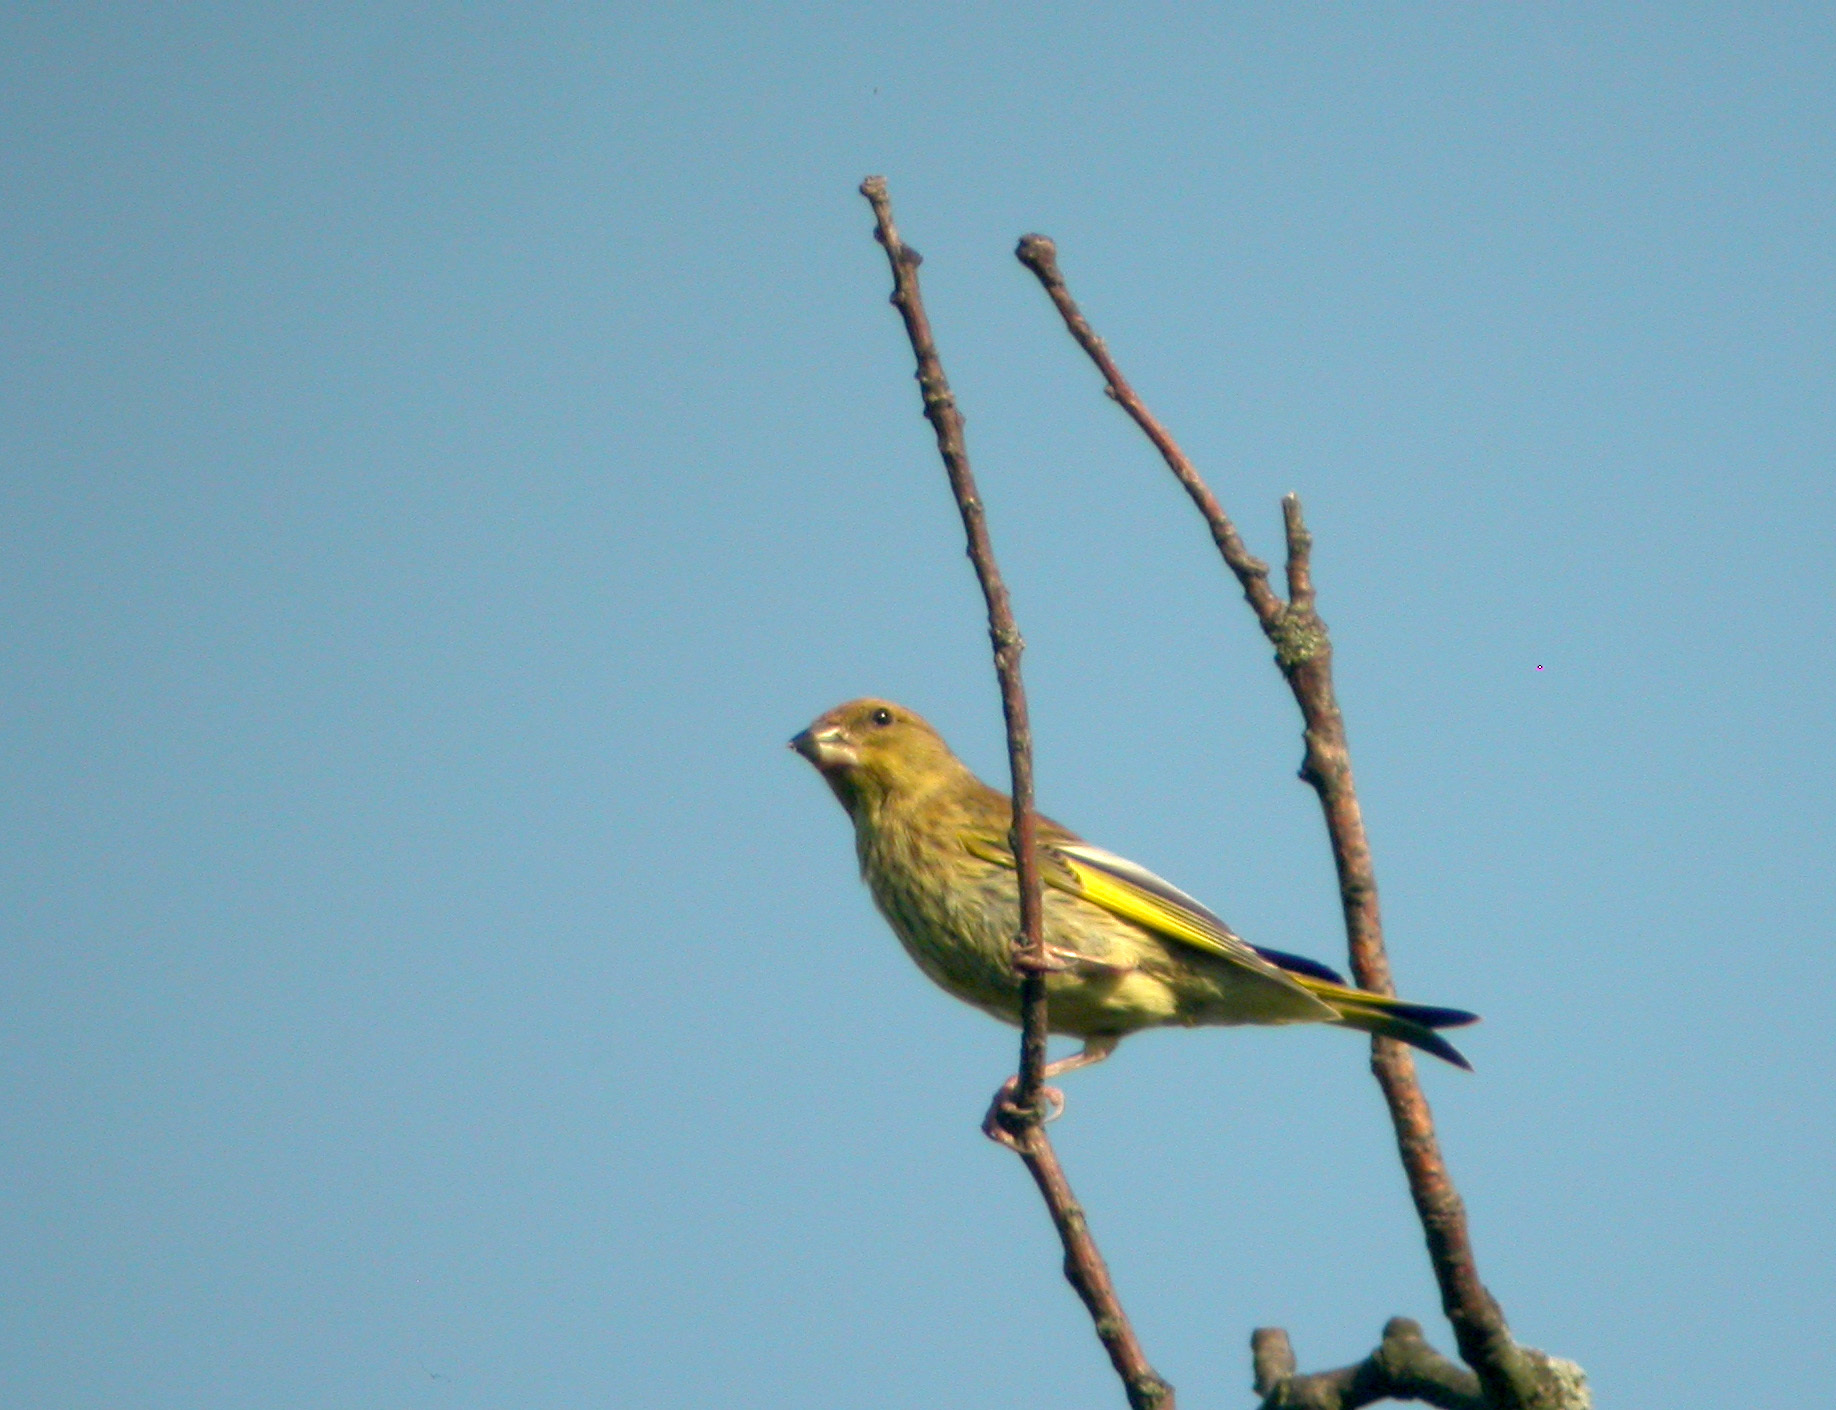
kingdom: Plantae
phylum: Tracheophyta
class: Liliopsida
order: Poales
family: Poaceae
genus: Chloris
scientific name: Chloris chloris
